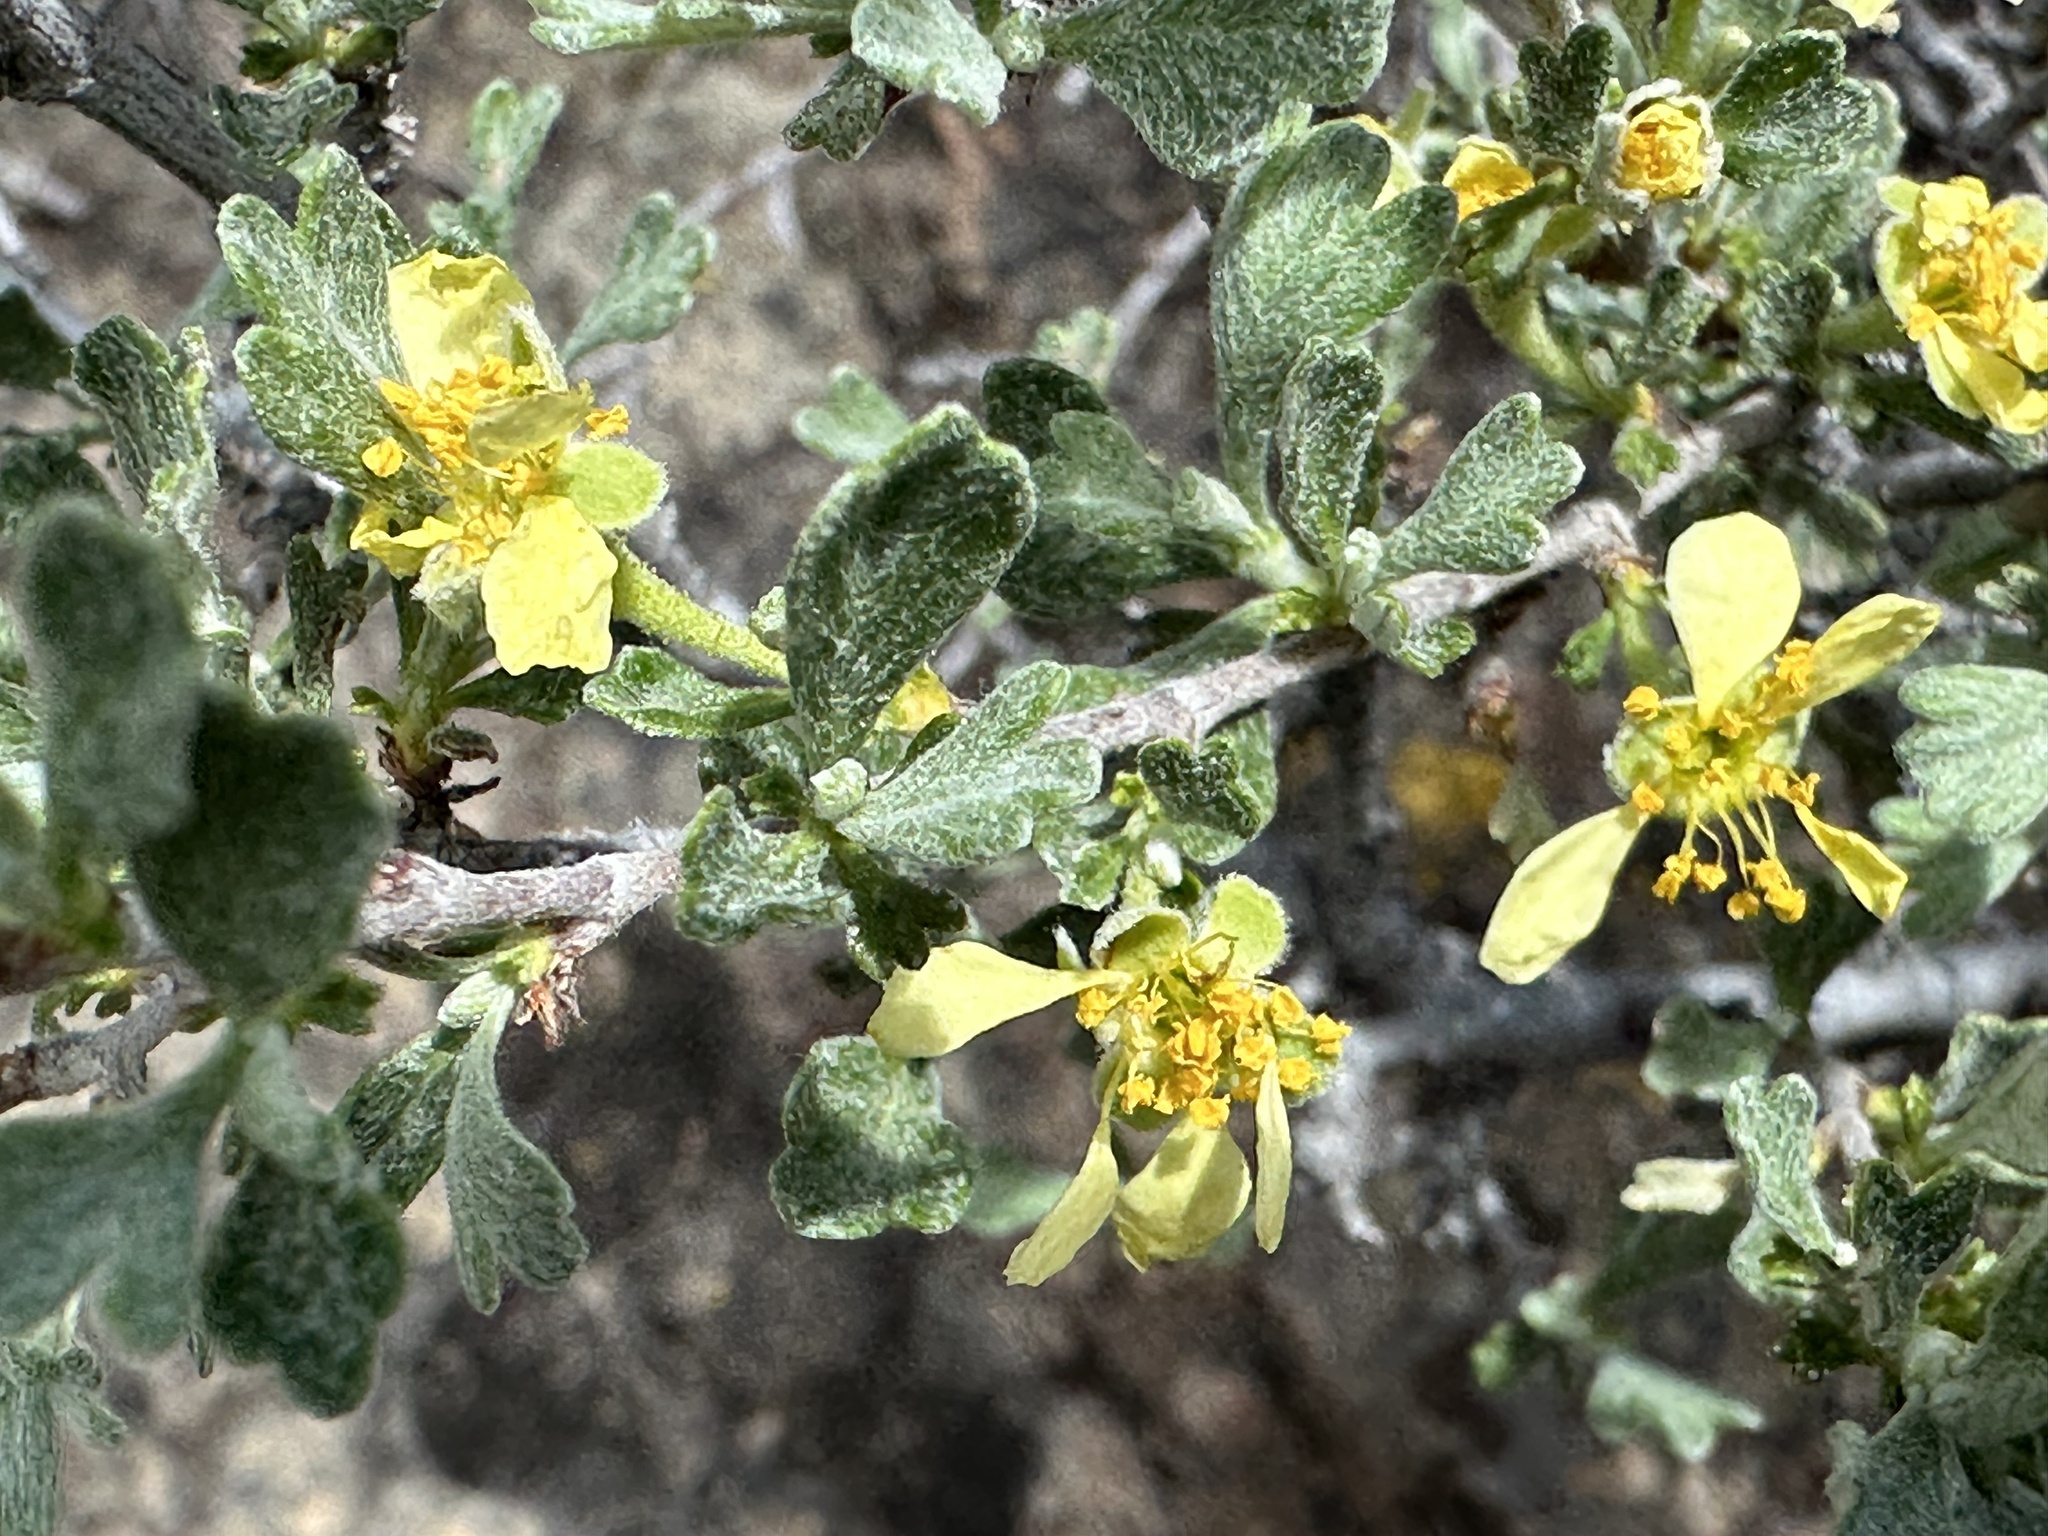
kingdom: Plantae
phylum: Tracheophyta
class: Magnoliopsida
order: Rosales
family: Rosaceae
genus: Purshia
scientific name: Purshia tridentata
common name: Antelope bitterbrush
